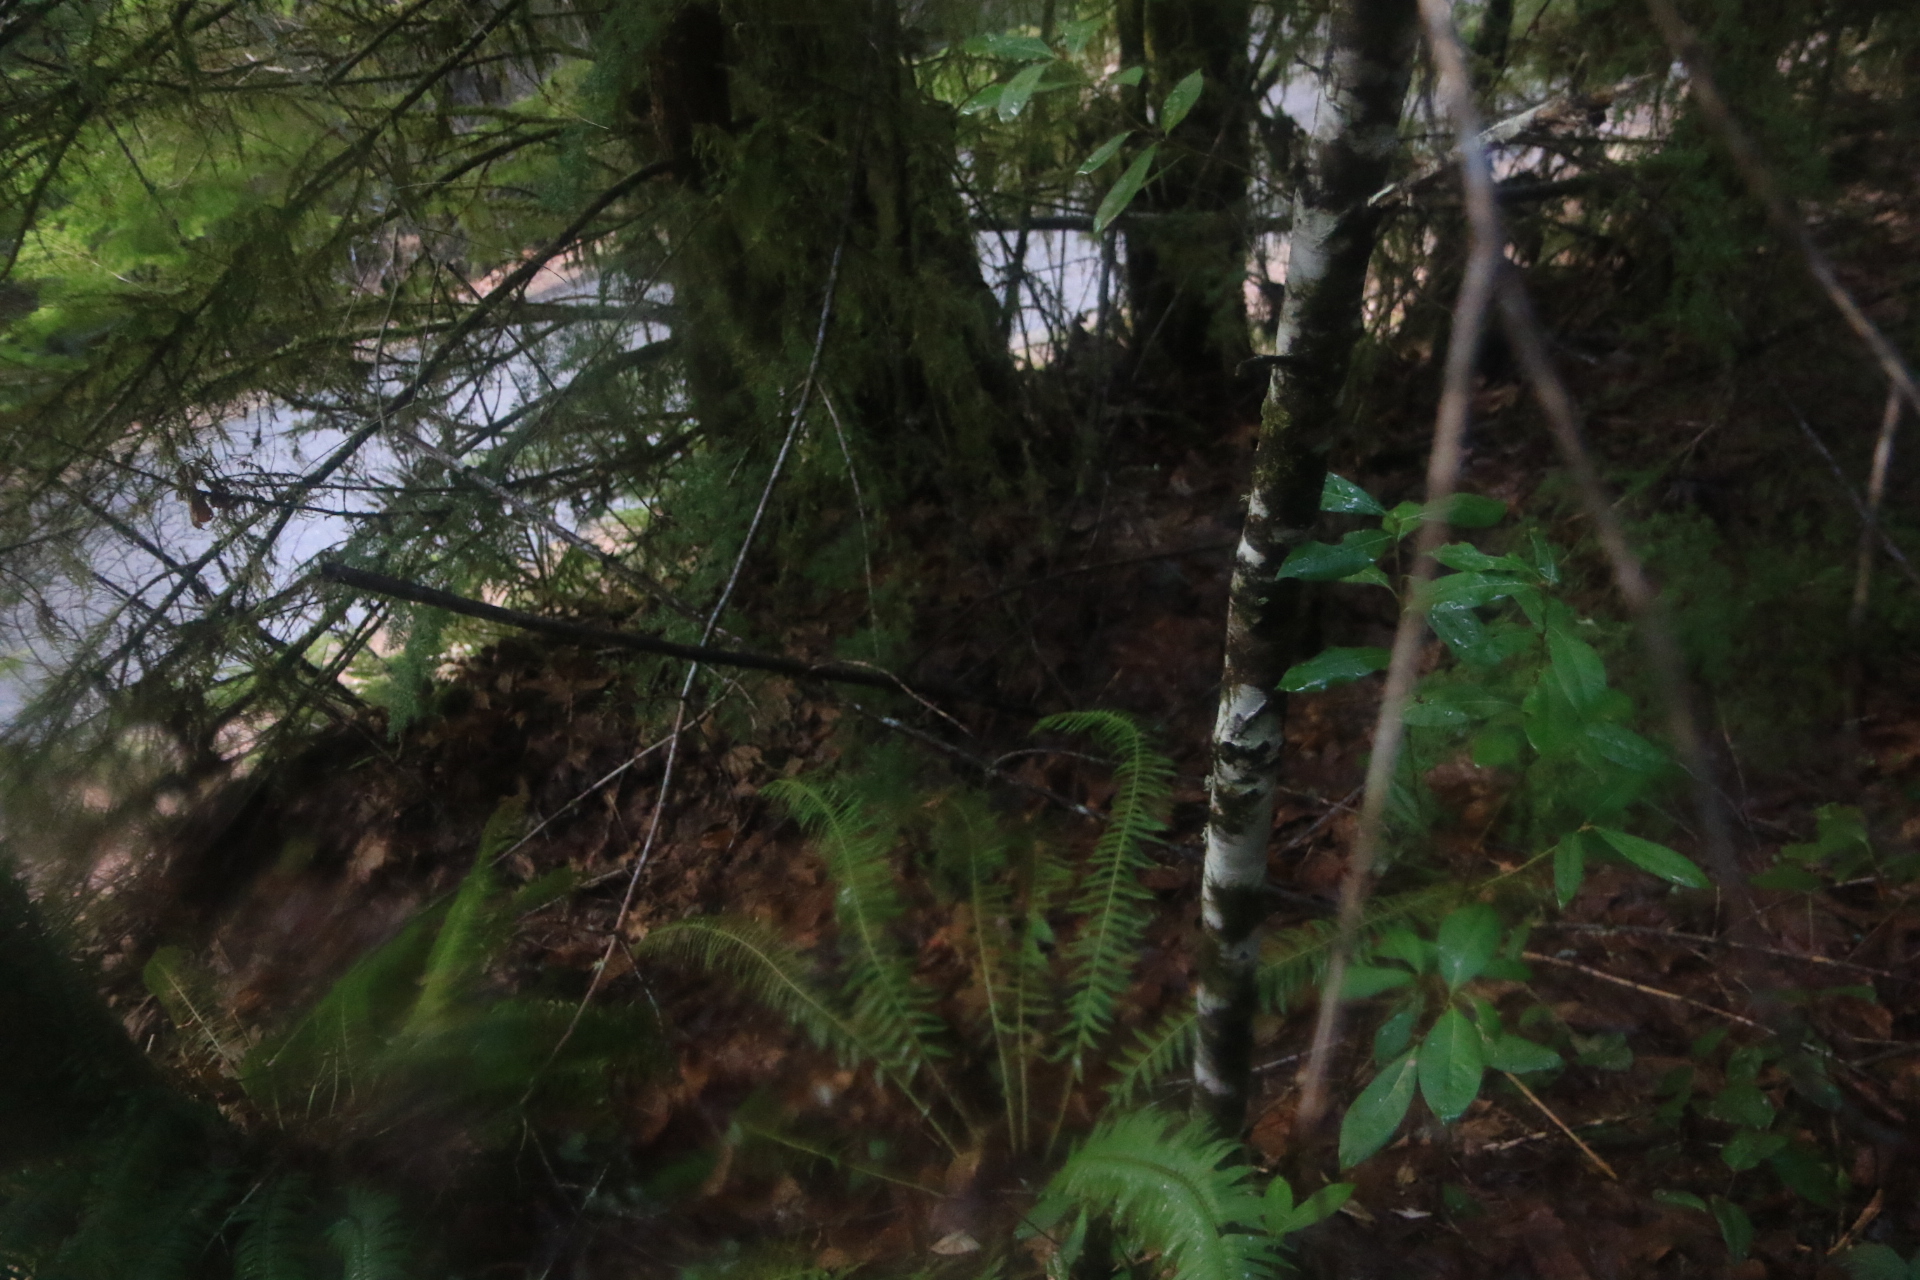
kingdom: Plantae
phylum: Tracheophyta
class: Magnoliopsida
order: Fagales
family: Fagaceae
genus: Chrysolepis
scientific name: Chrysolepis chrysophylla
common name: Giant chinquapin
